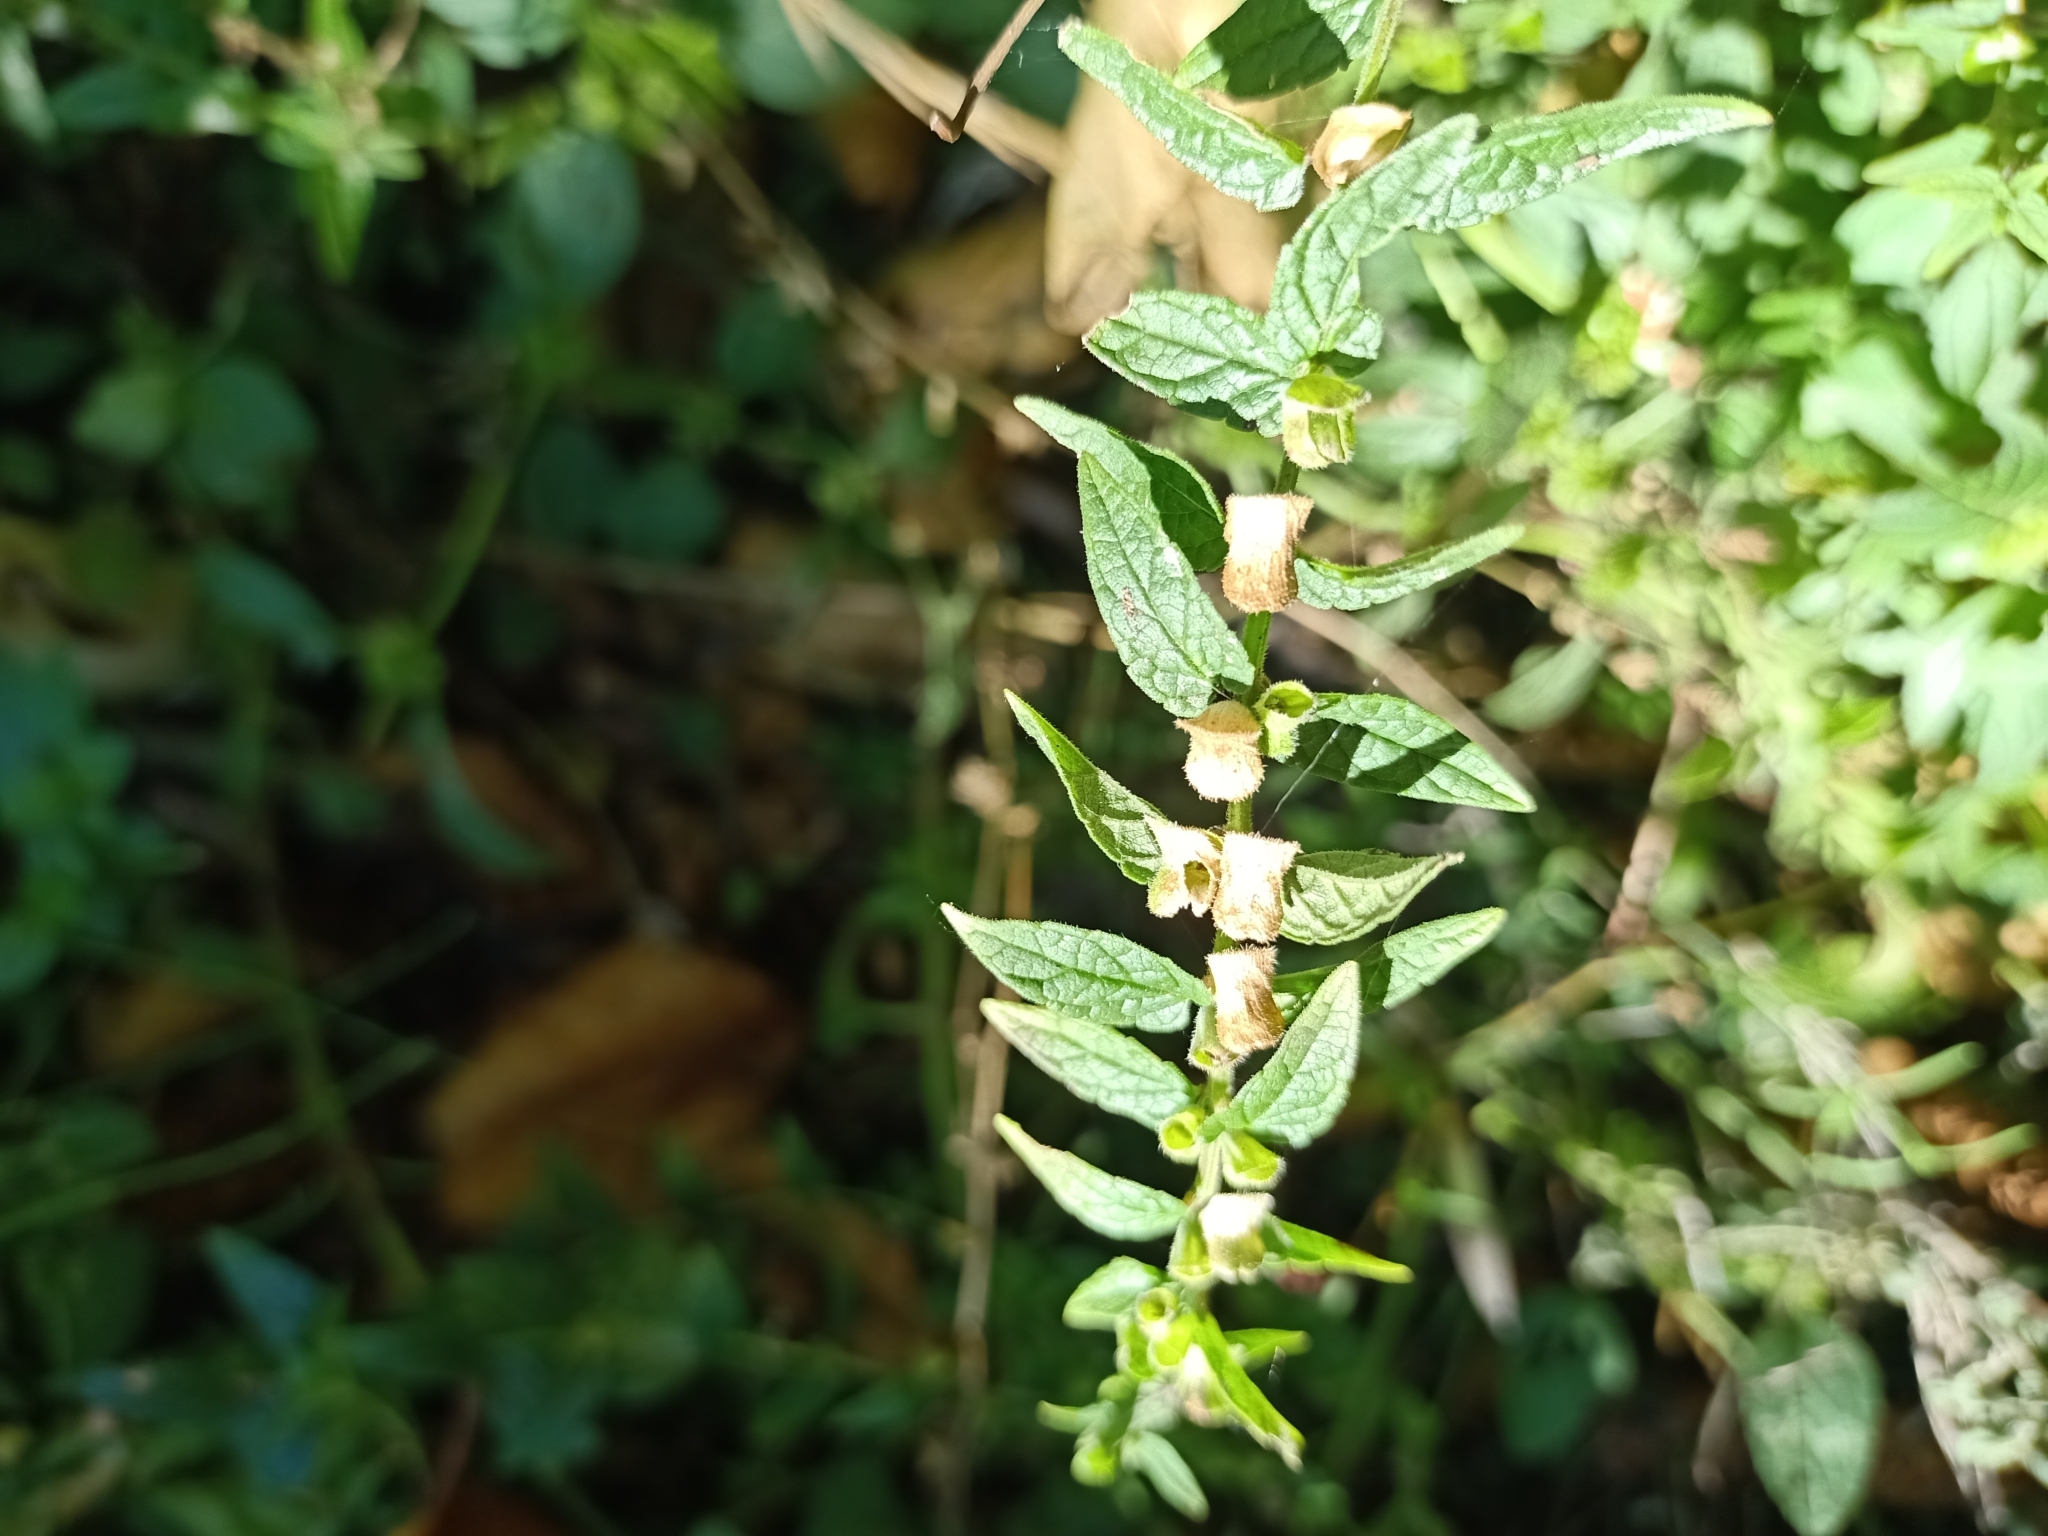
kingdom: Plantae
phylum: Tracheophyta
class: Magnoliopsida
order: Lamiales
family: Lamiaceae
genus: Scutellaria
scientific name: Scutellaria galericulata
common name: Skullcap
